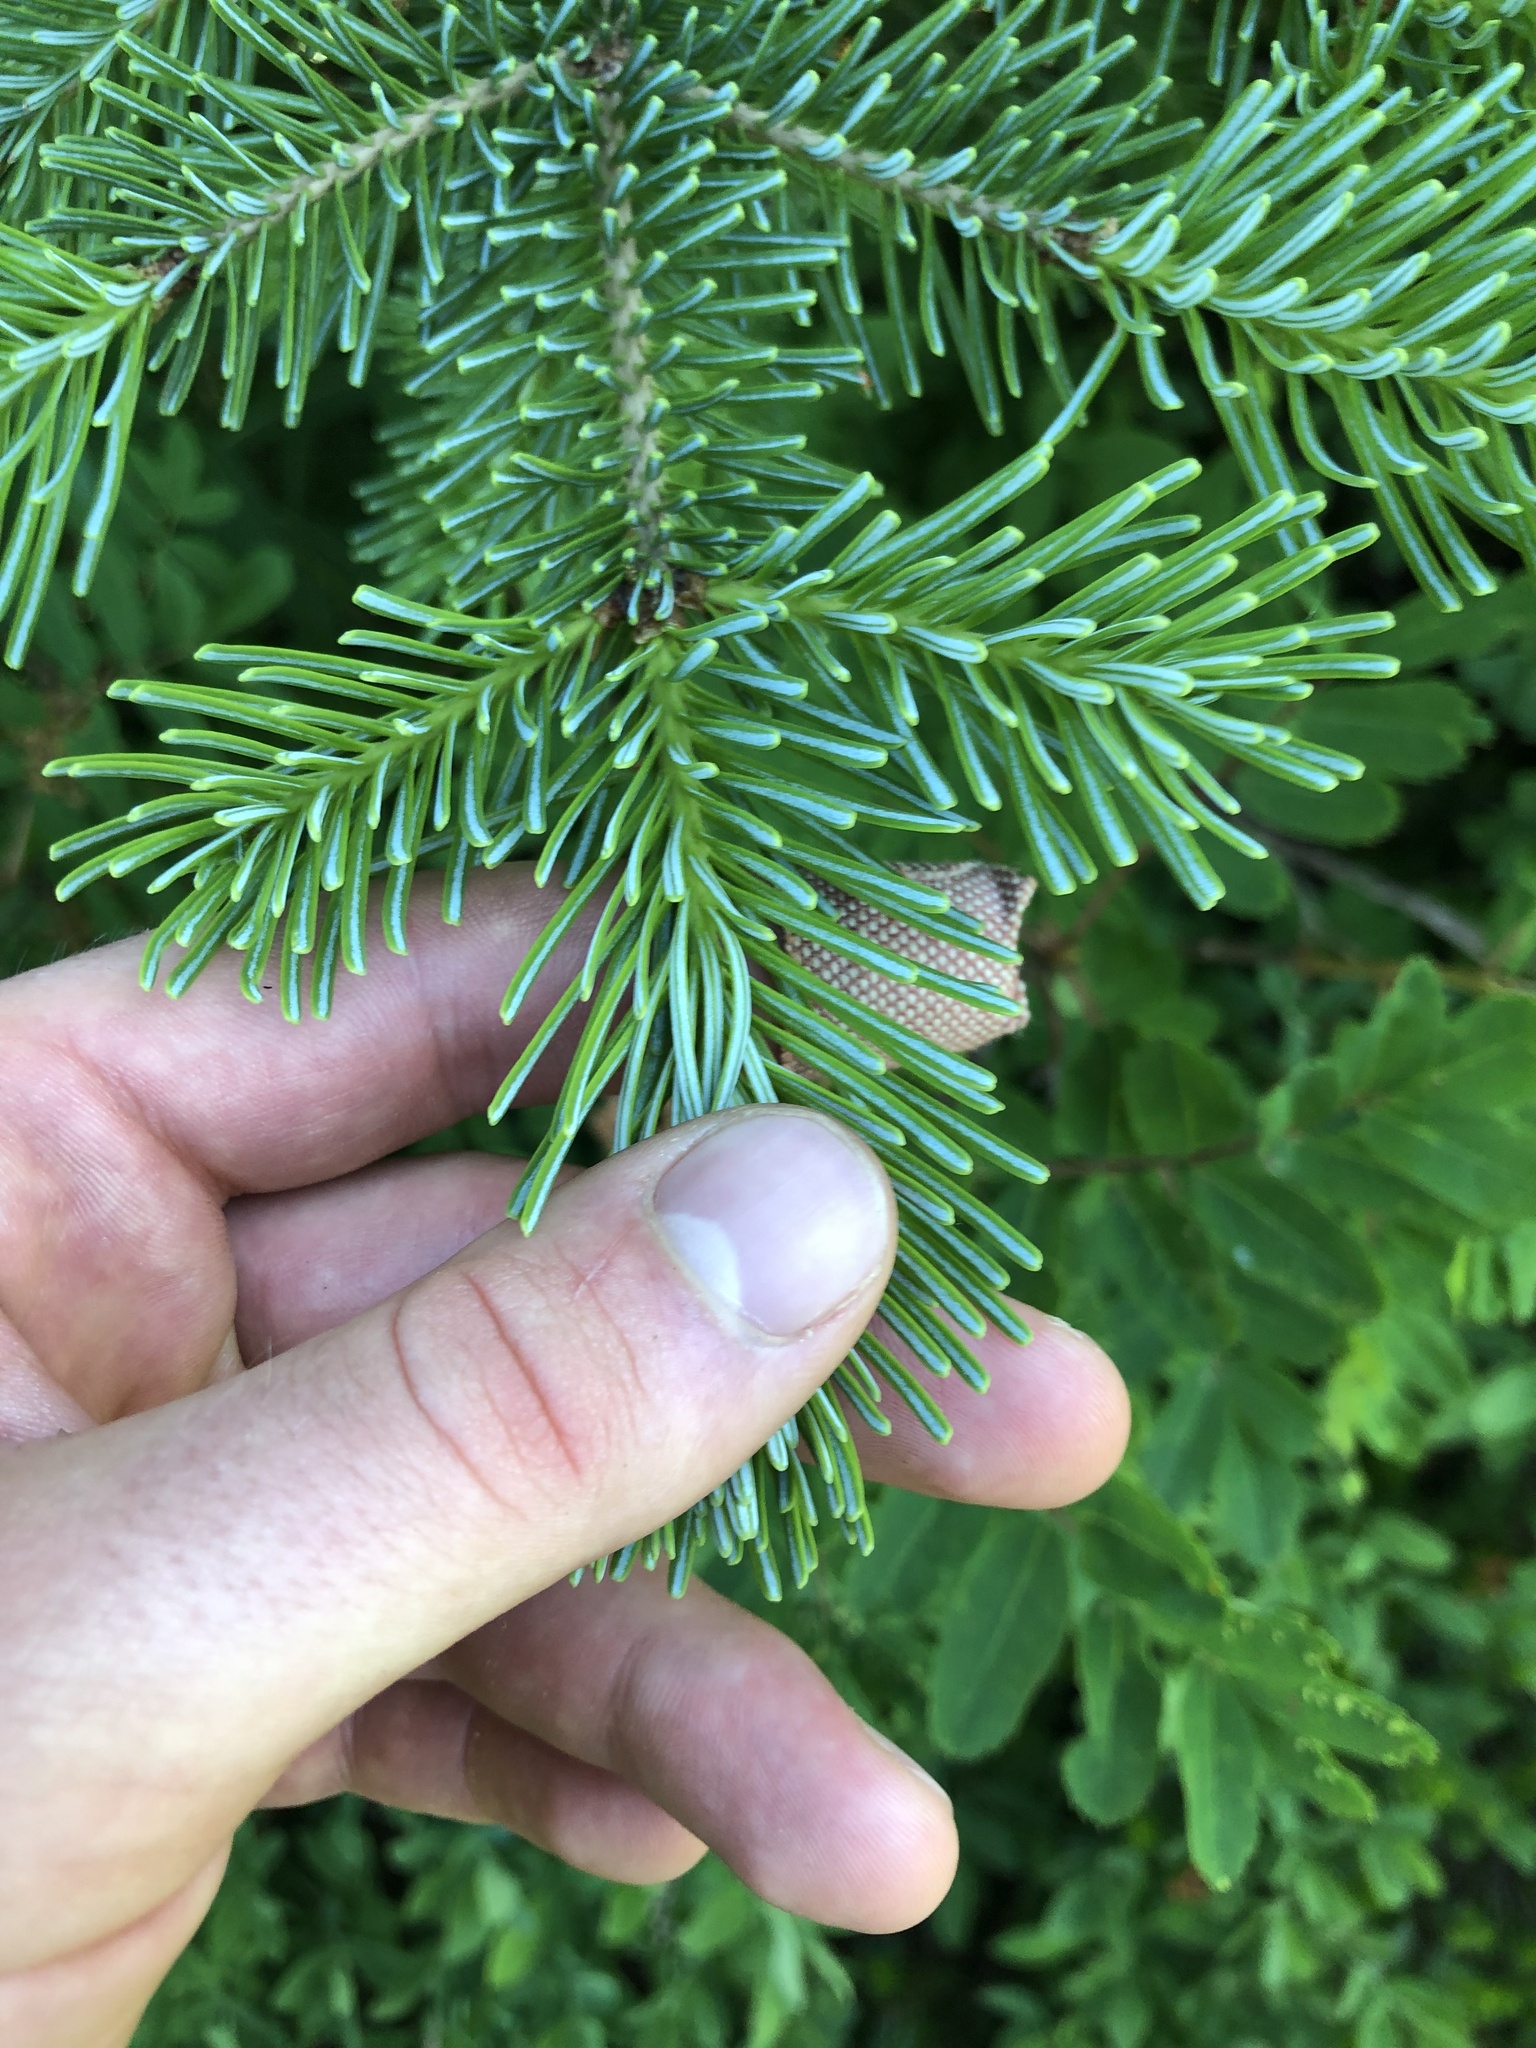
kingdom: Plantae
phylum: Tracheophyta
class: Pinopsida
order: Pinales
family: Pinaceae
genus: Abies
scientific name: Abies lasiocarpa
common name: Subalpine fir
